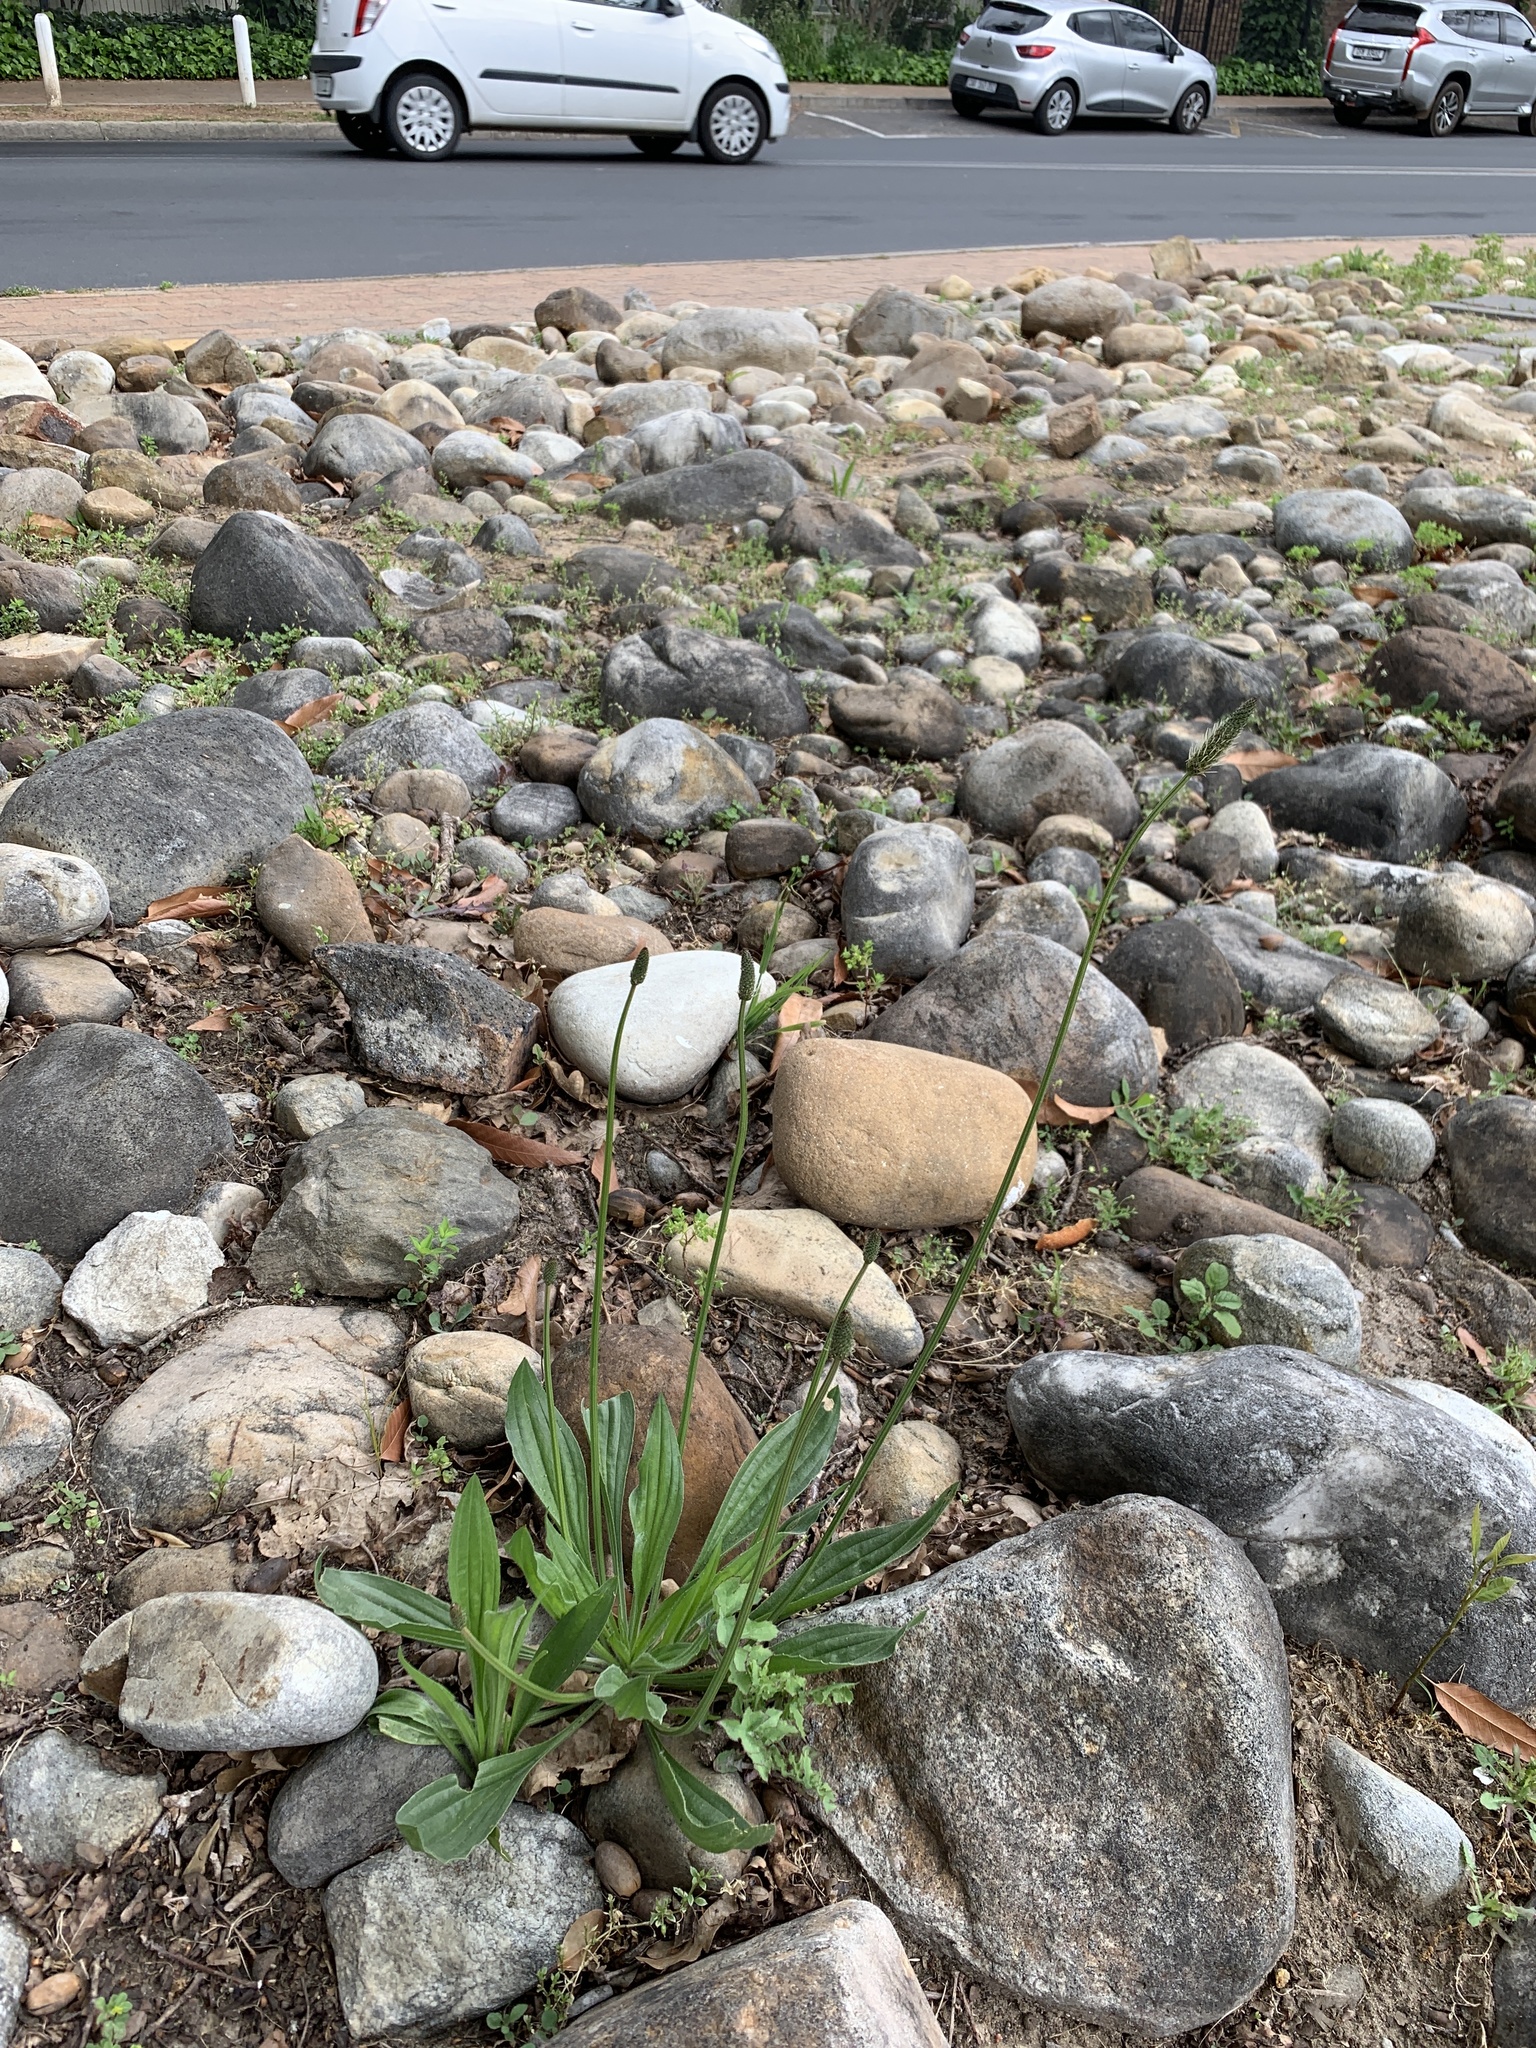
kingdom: Plantae
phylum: Tracheophyta
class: Magnoliopsida
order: Lamiales
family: Plantaginaceae
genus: Plantago
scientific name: Plantago lanceolata
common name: Ribwort plantain
